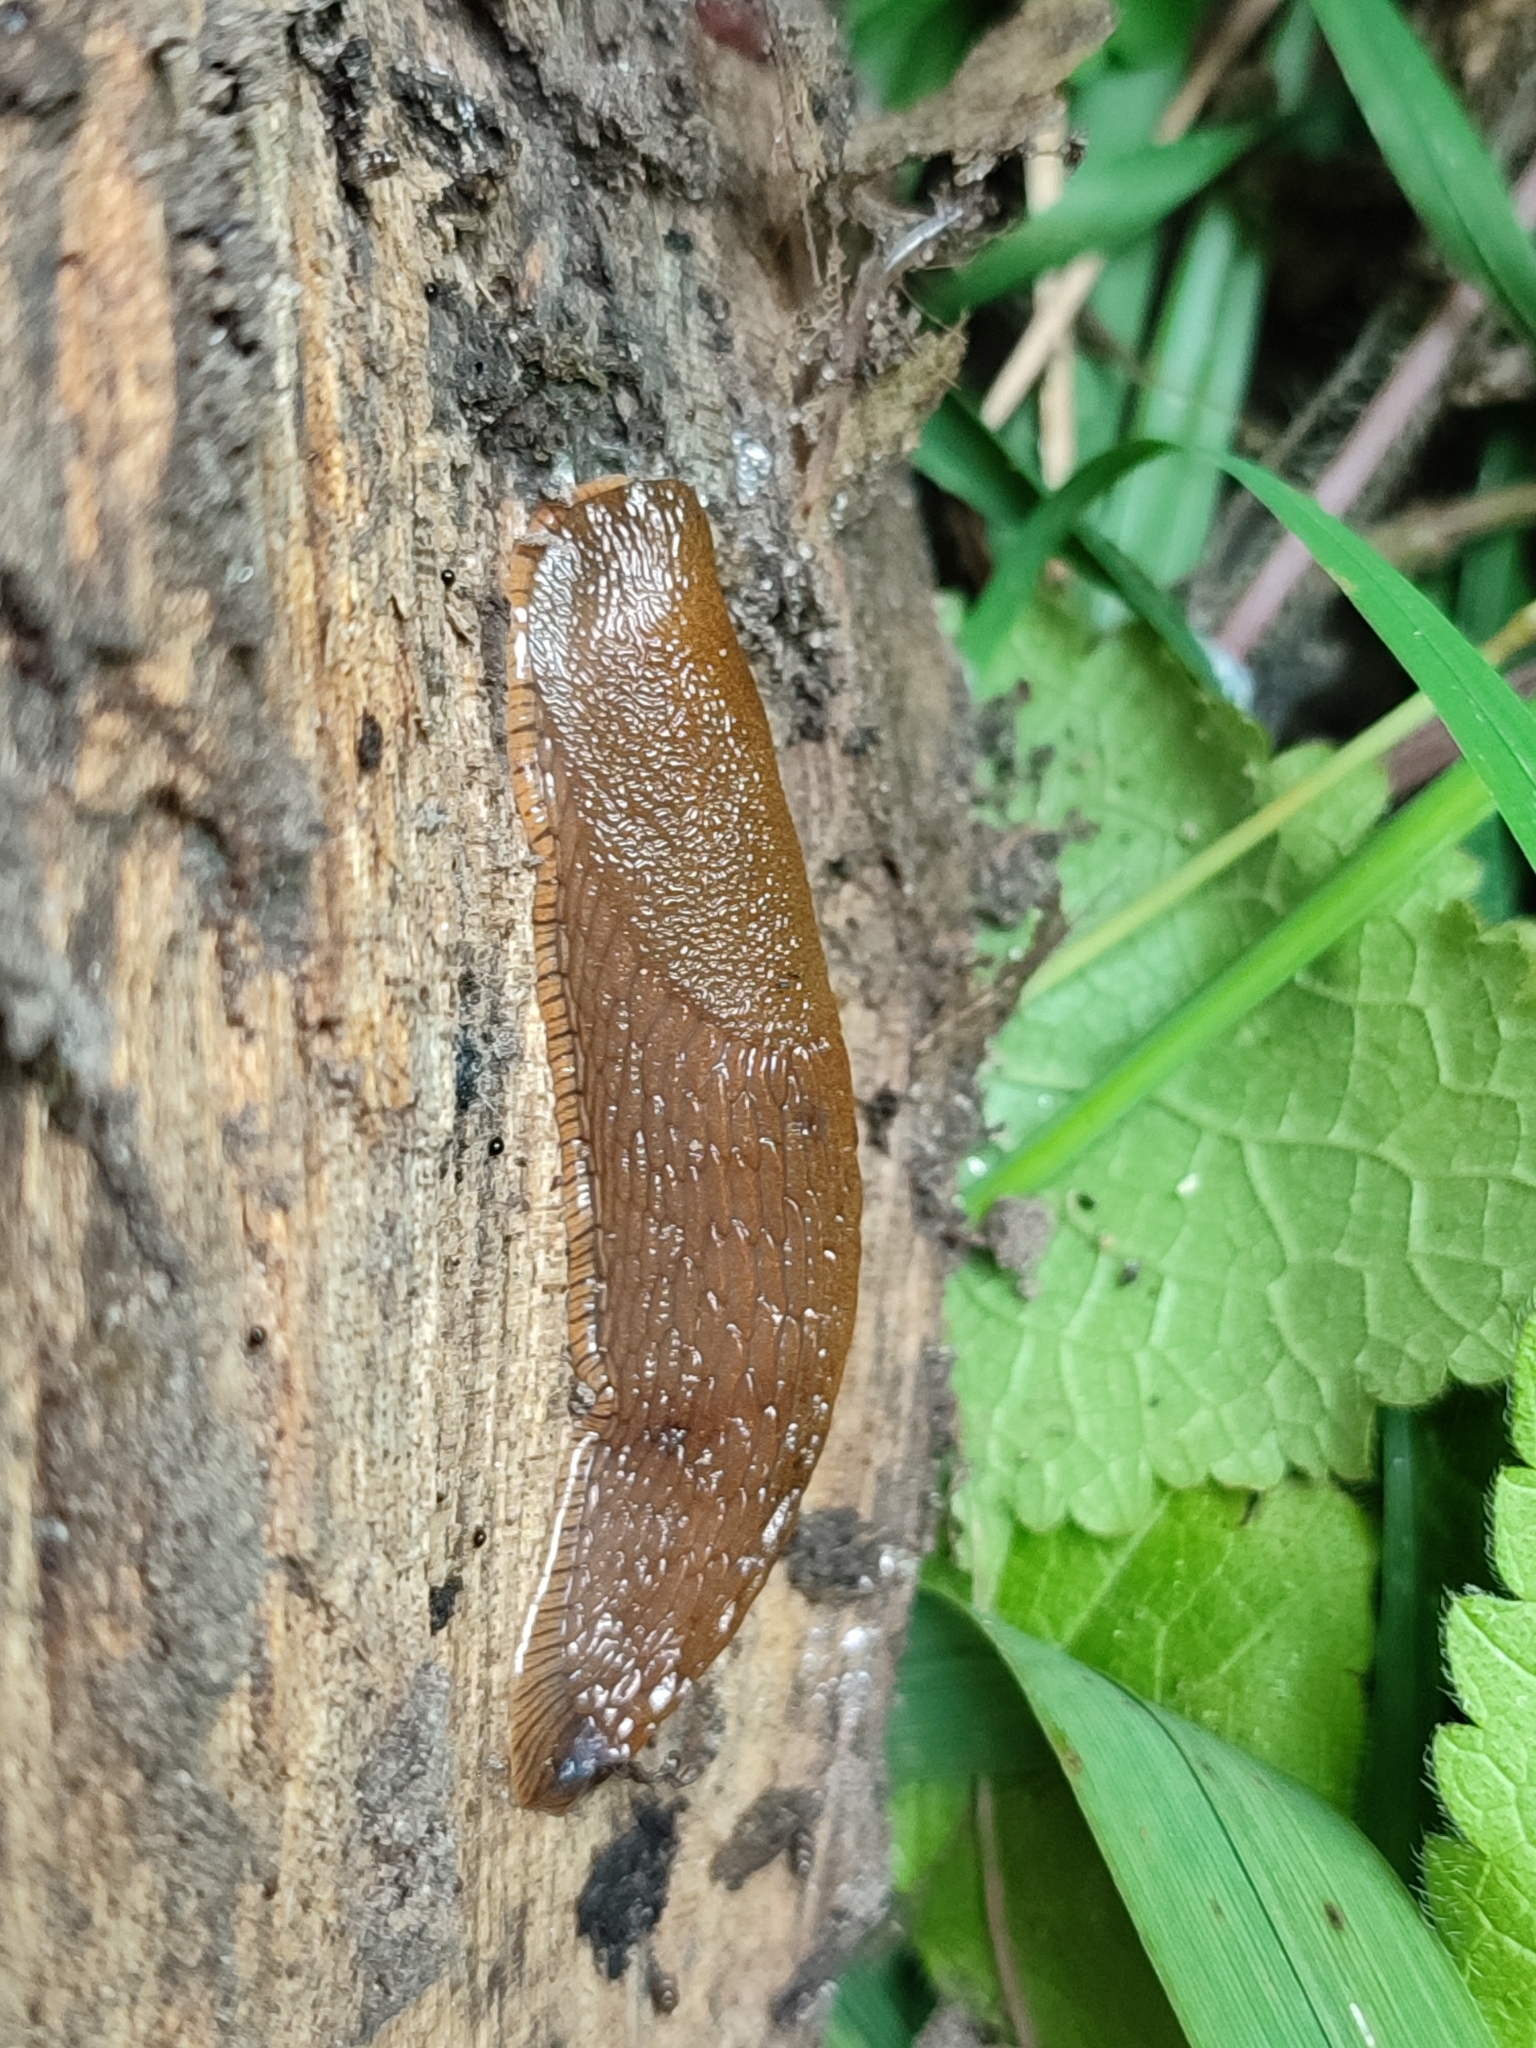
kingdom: Animalia
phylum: Mollusca
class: Gastropoda
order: Stylommatophora
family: Arionidae
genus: Arion
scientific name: Arion vulgaris
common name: Lusitanian slug
